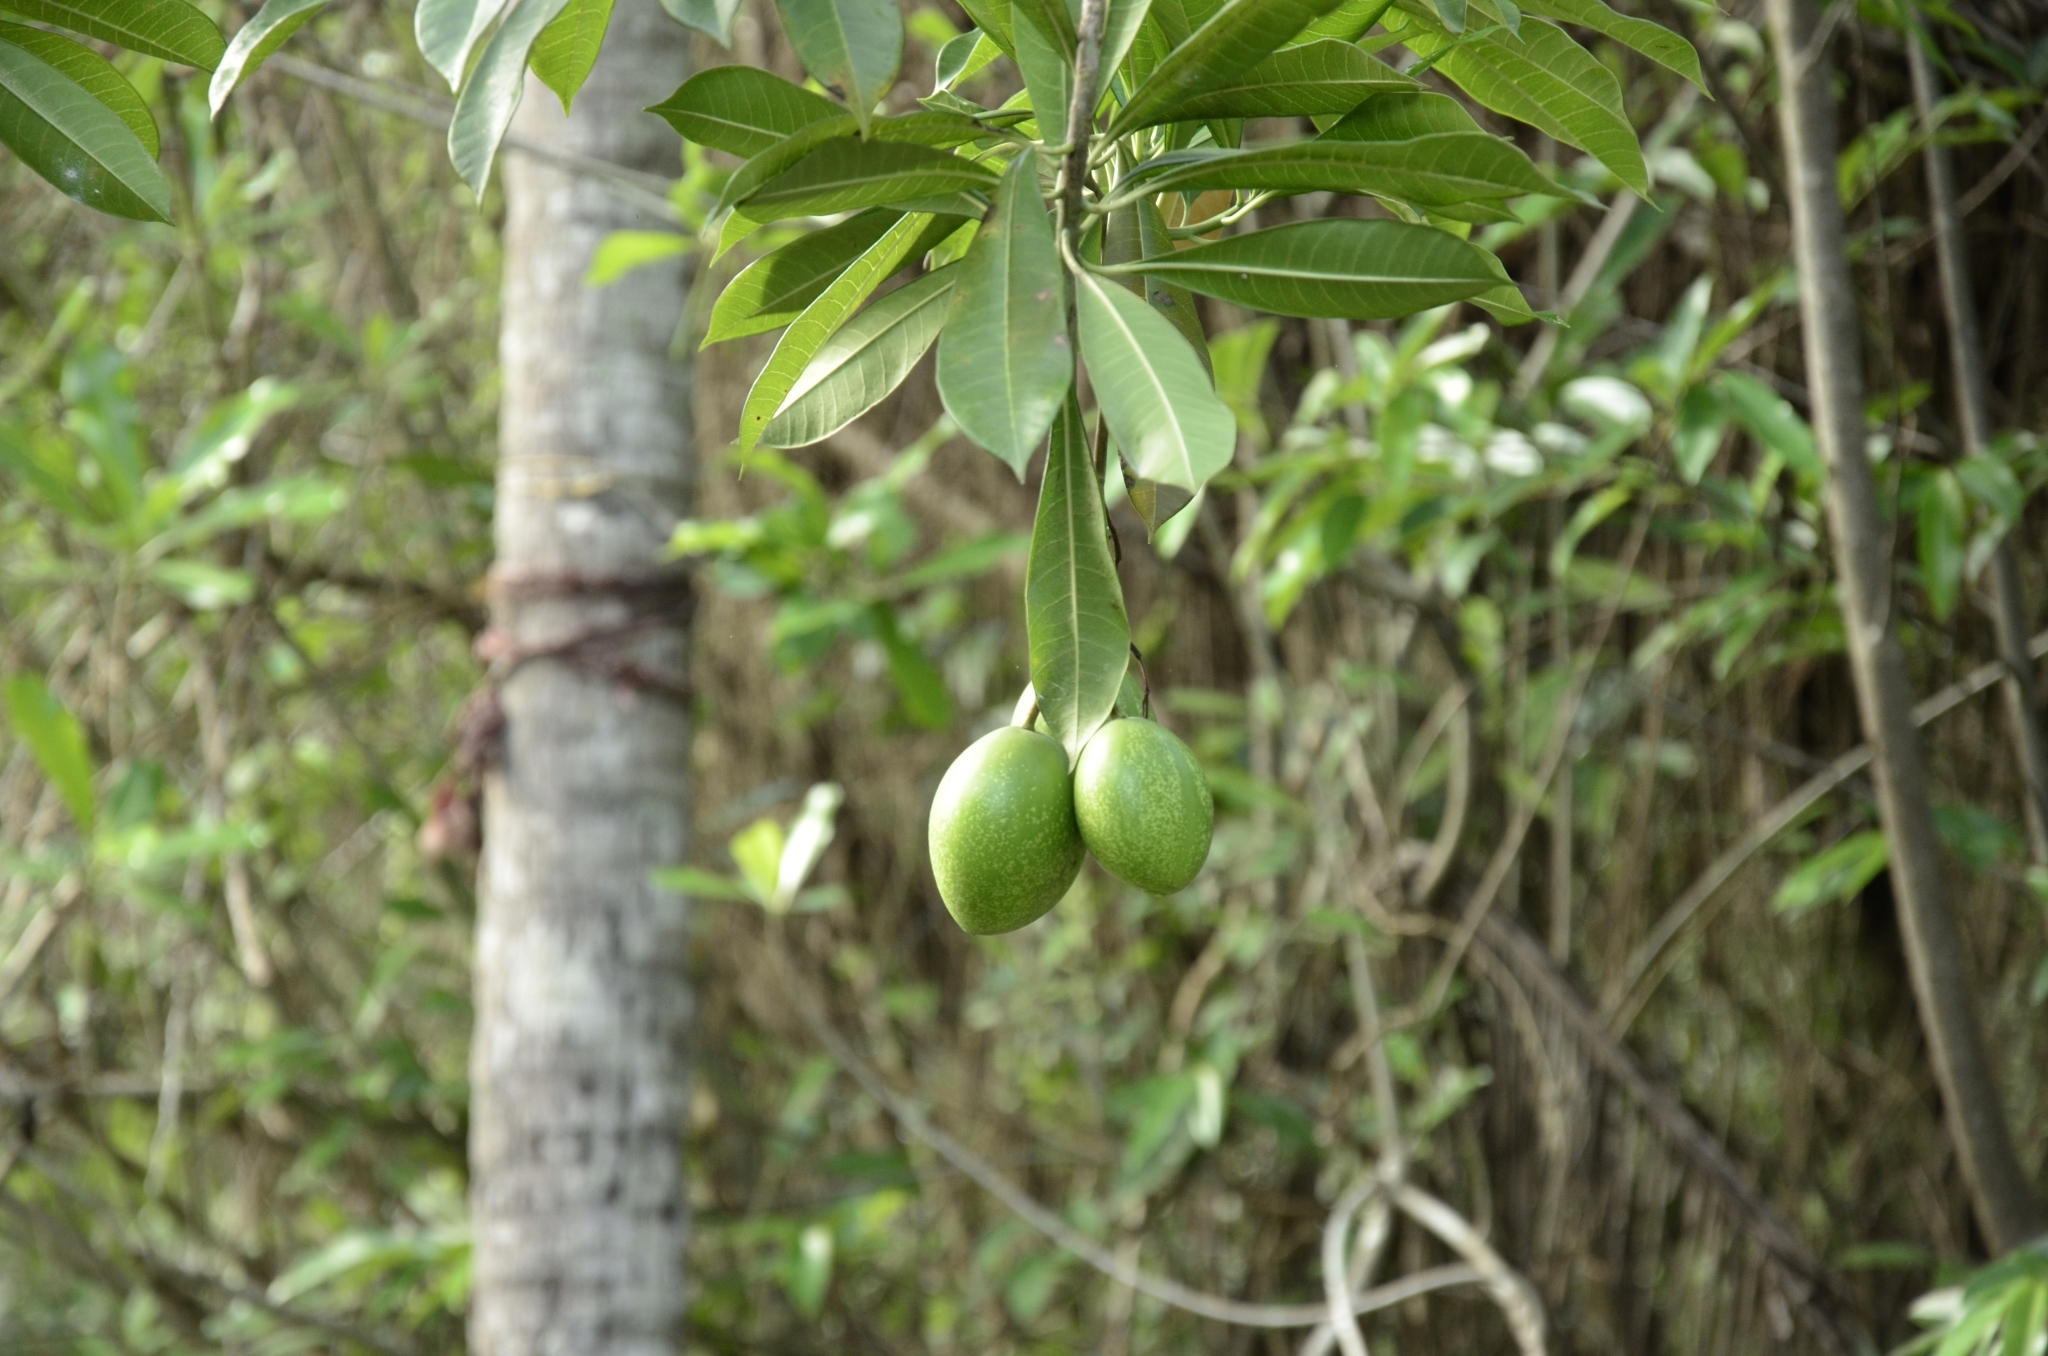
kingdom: Plantae
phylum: Tracheophyta
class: Magnoliopsida
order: Gentianales
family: Apocynaceae
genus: Cerbera
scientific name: Cerbera odollam
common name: Pong-pong
